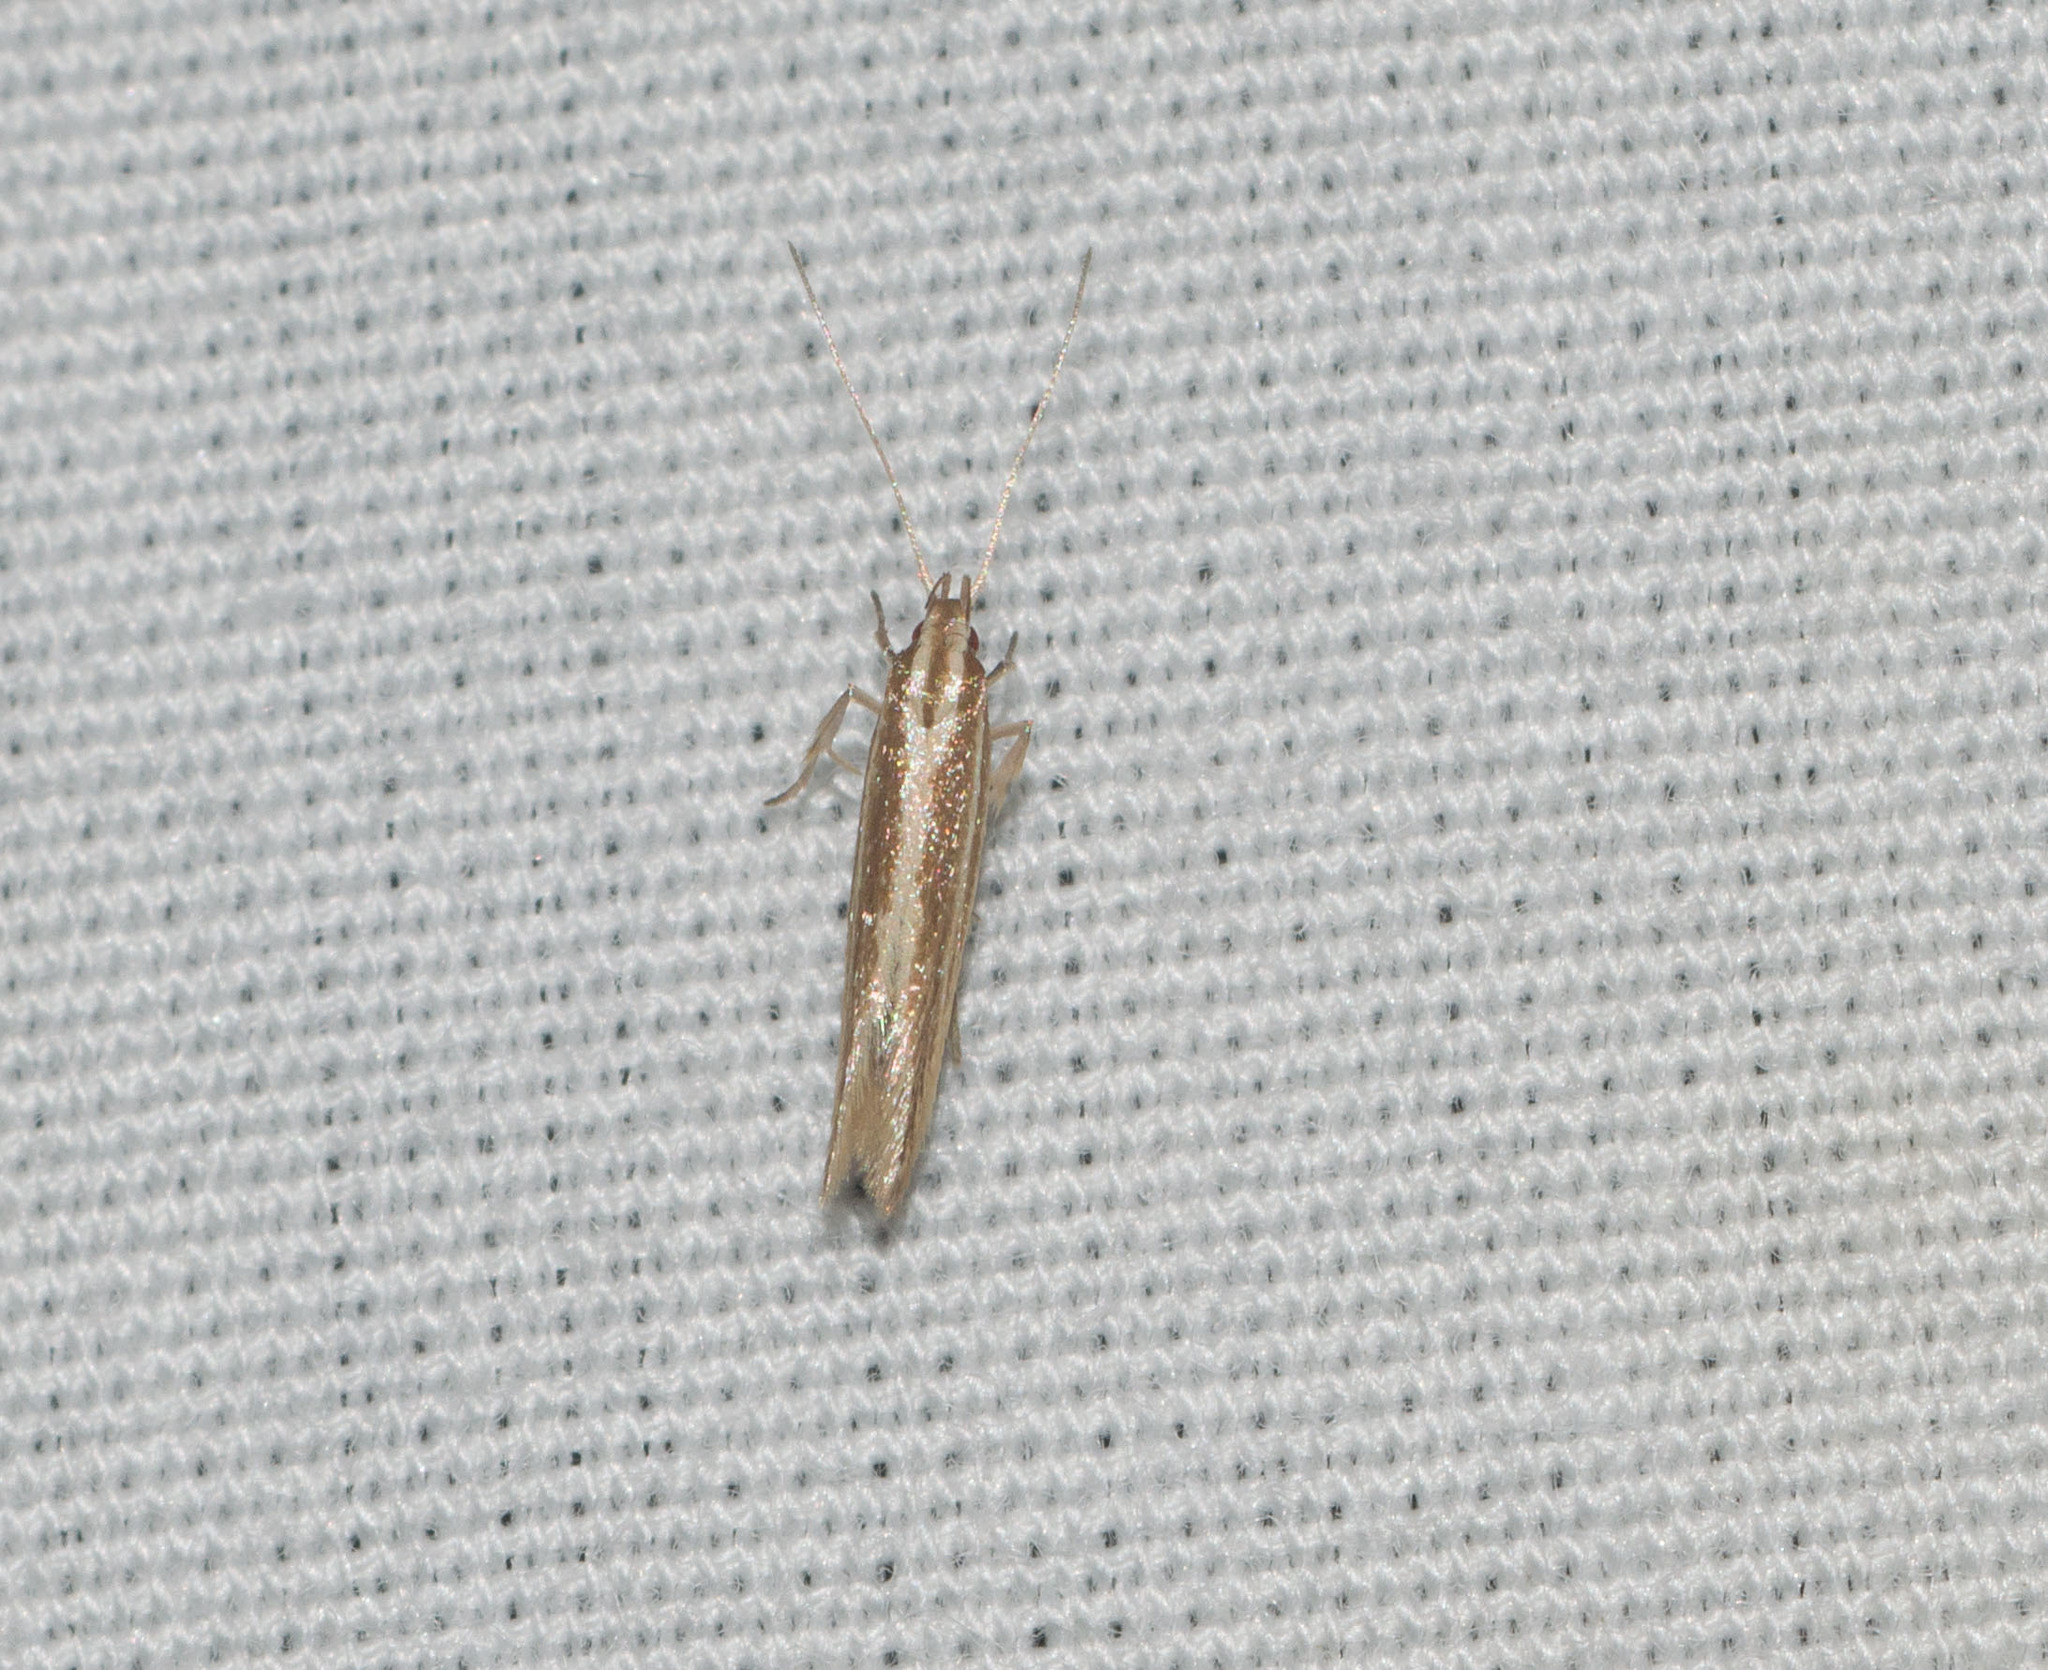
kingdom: Animalia
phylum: Arthropoda
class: Insecta
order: Lepidoptera
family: Cosmopterigidae
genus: Asymphorodes
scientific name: Asymphorodes
